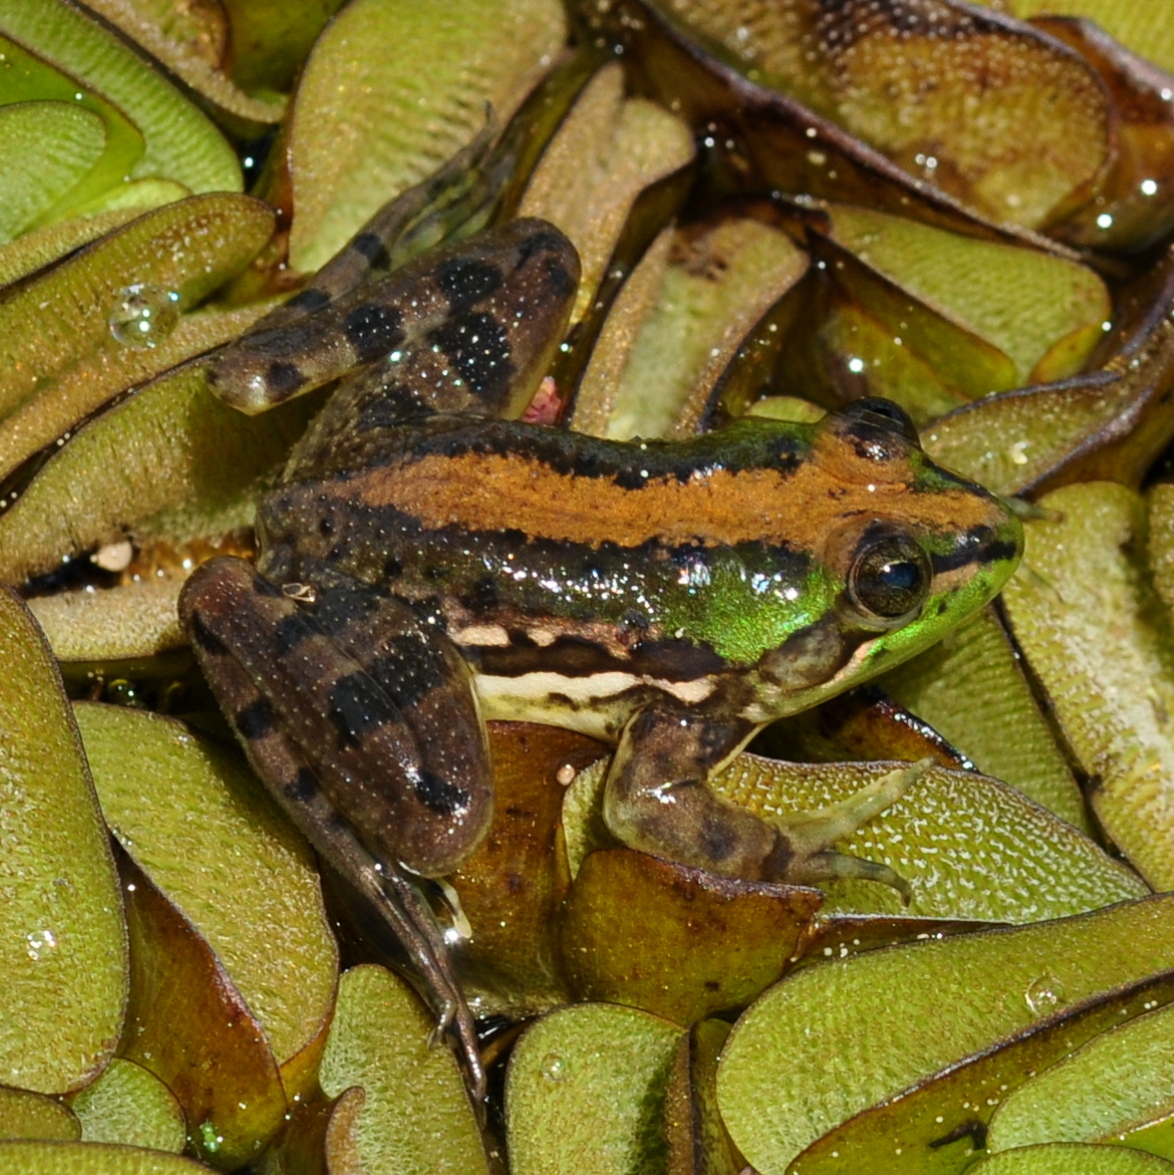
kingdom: Animalia
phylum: Chordata
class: Amphibia
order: Anura
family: Hylidae
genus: Pseudis
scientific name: Pseudis minuta
